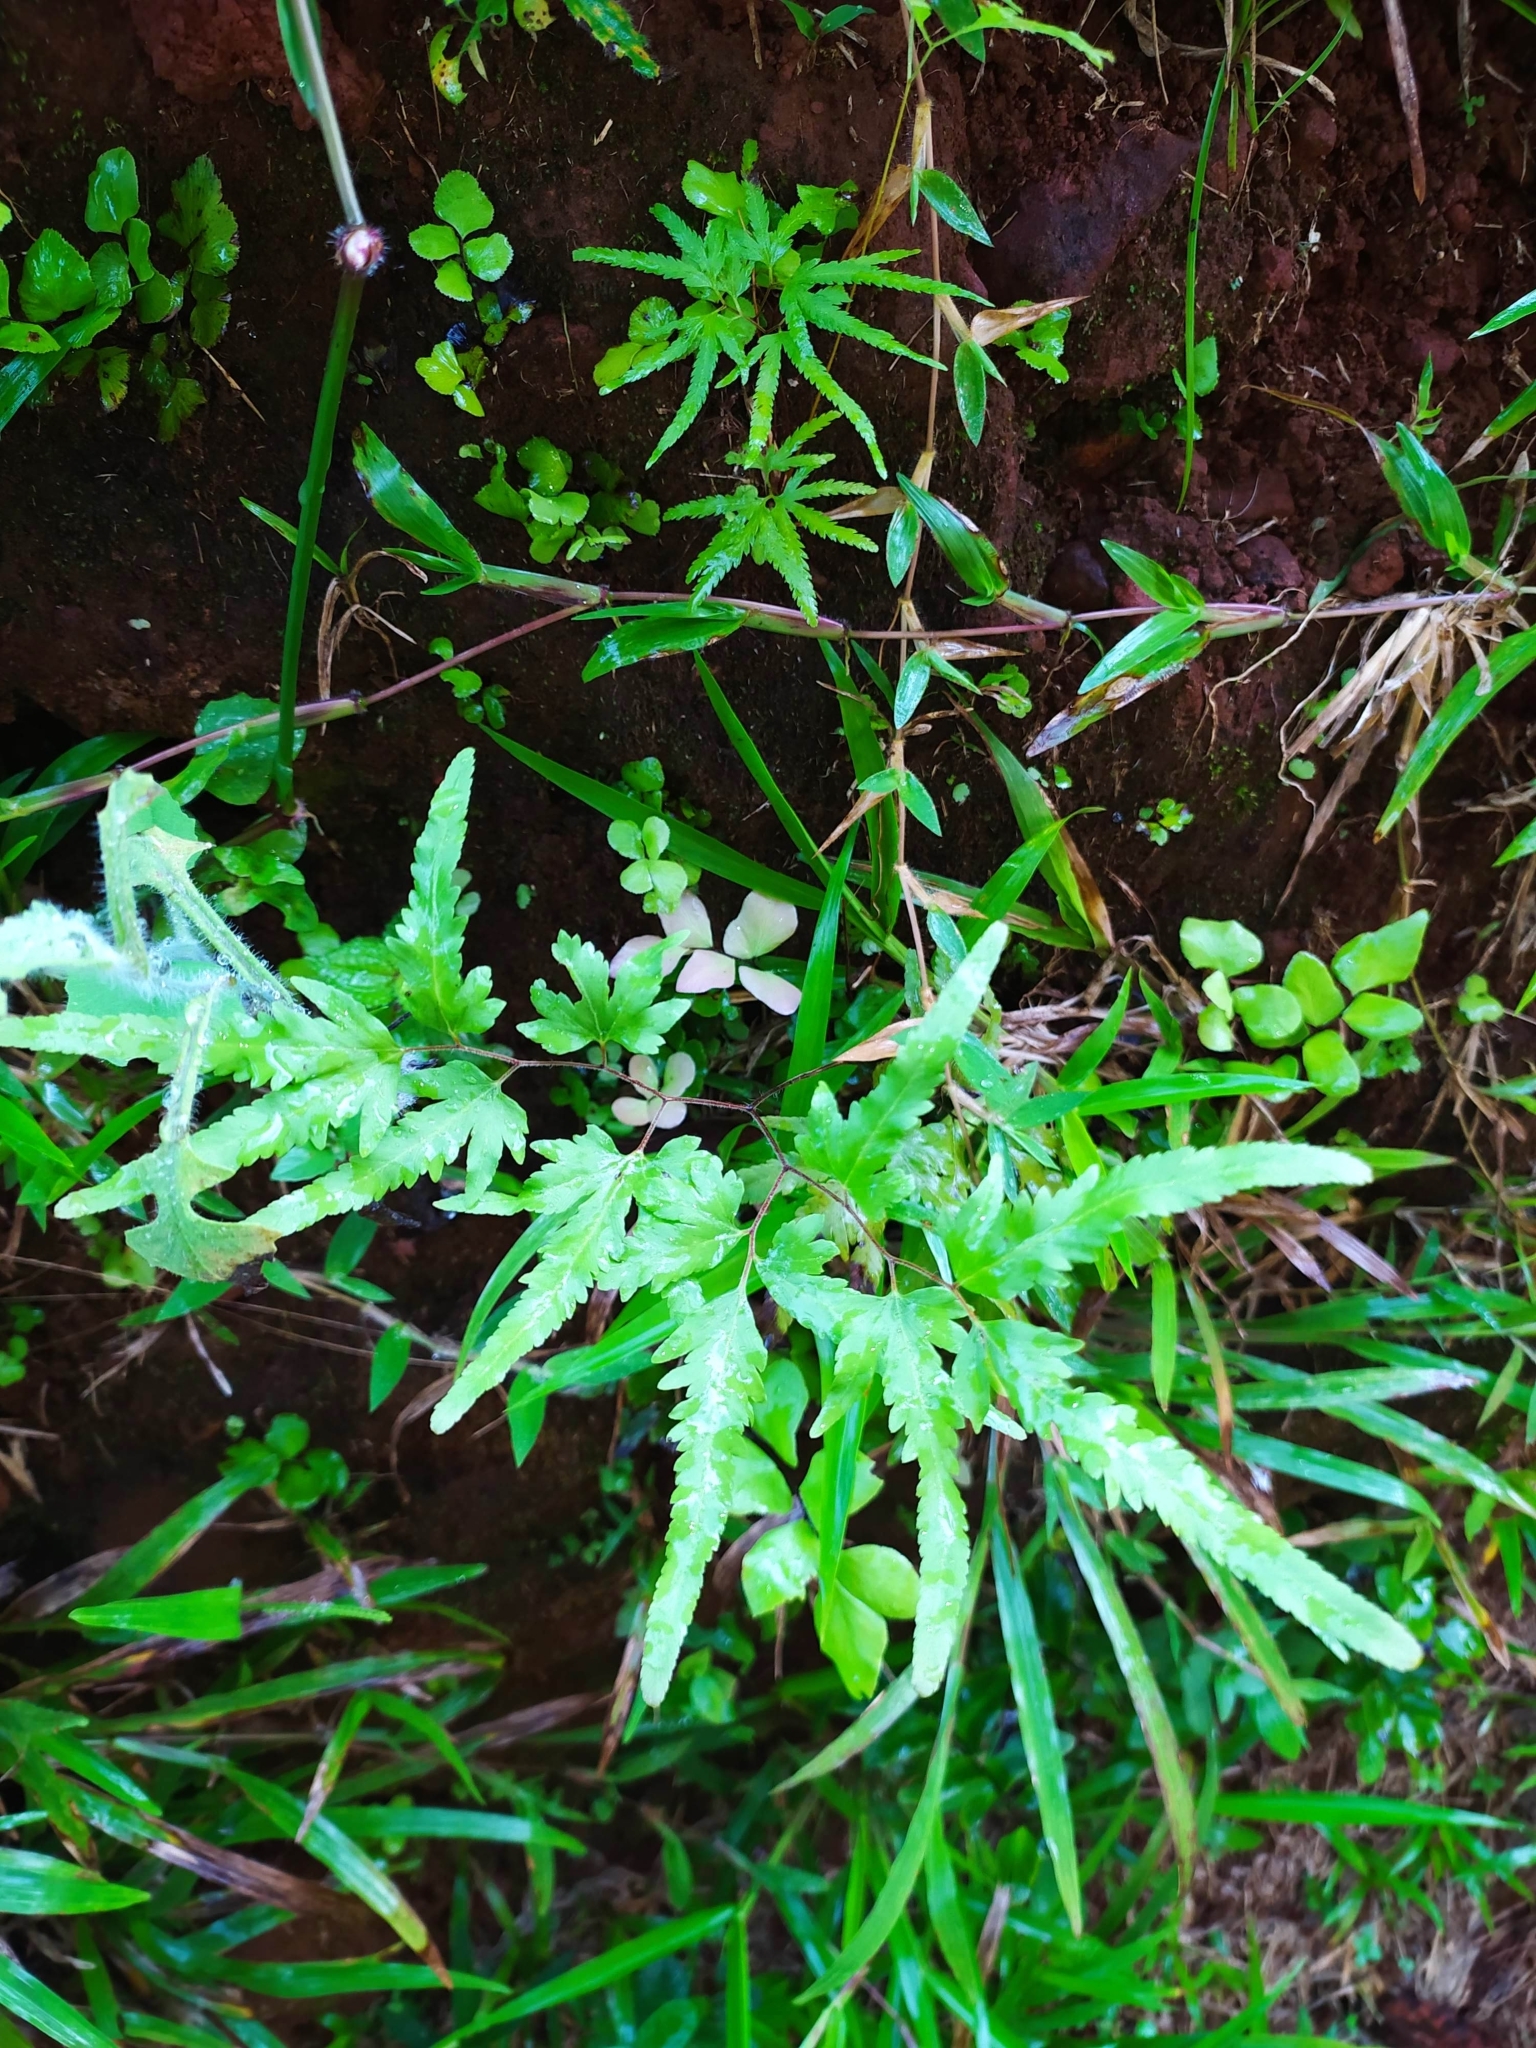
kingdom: Plantae
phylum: Tracheophyta
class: Polypodiopsida
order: Schizaeales
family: Lygodiaceae
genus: Lygodium
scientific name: Lygodium venustum
